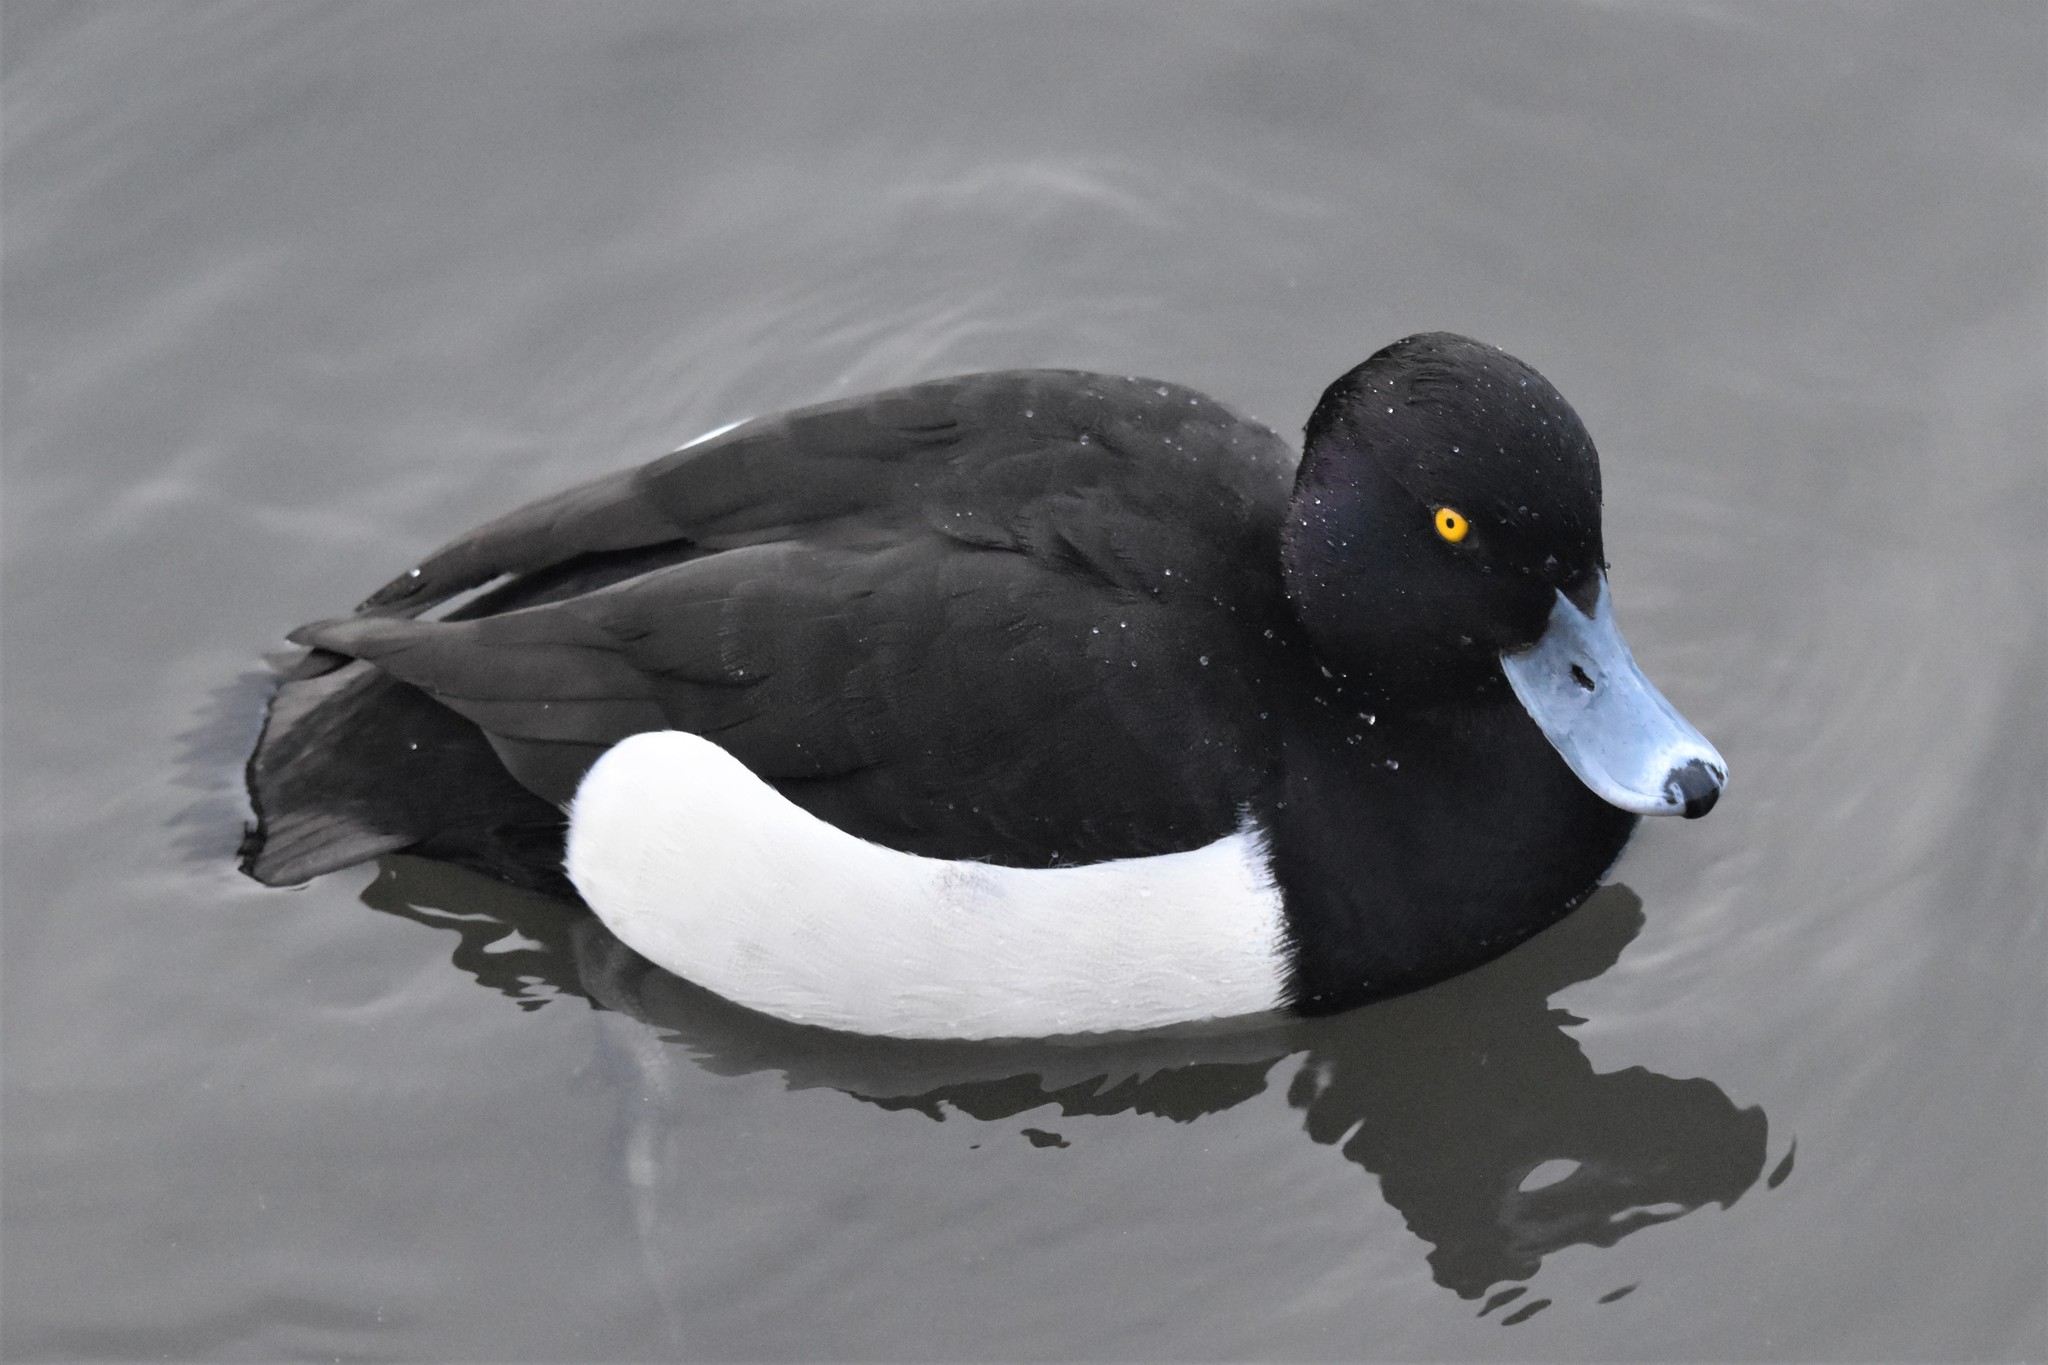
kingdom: Animalia
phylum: Chordata
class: Aves
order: Anseriformes
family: Anatidae
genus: Aythya
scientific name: Aythya fuligula
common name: Tufted duck
